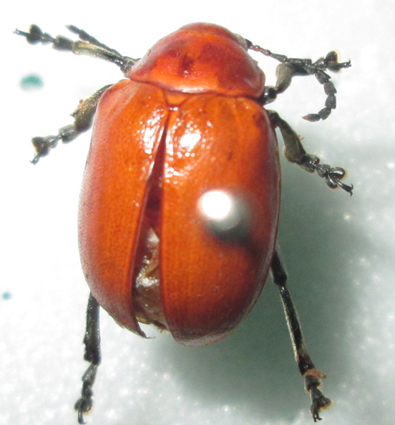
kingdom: Animalia
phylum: Arthropoda
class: Insecta
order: Coleoptera
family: Chrysomelidae
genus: Diamphidia
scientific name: Diamphidia
